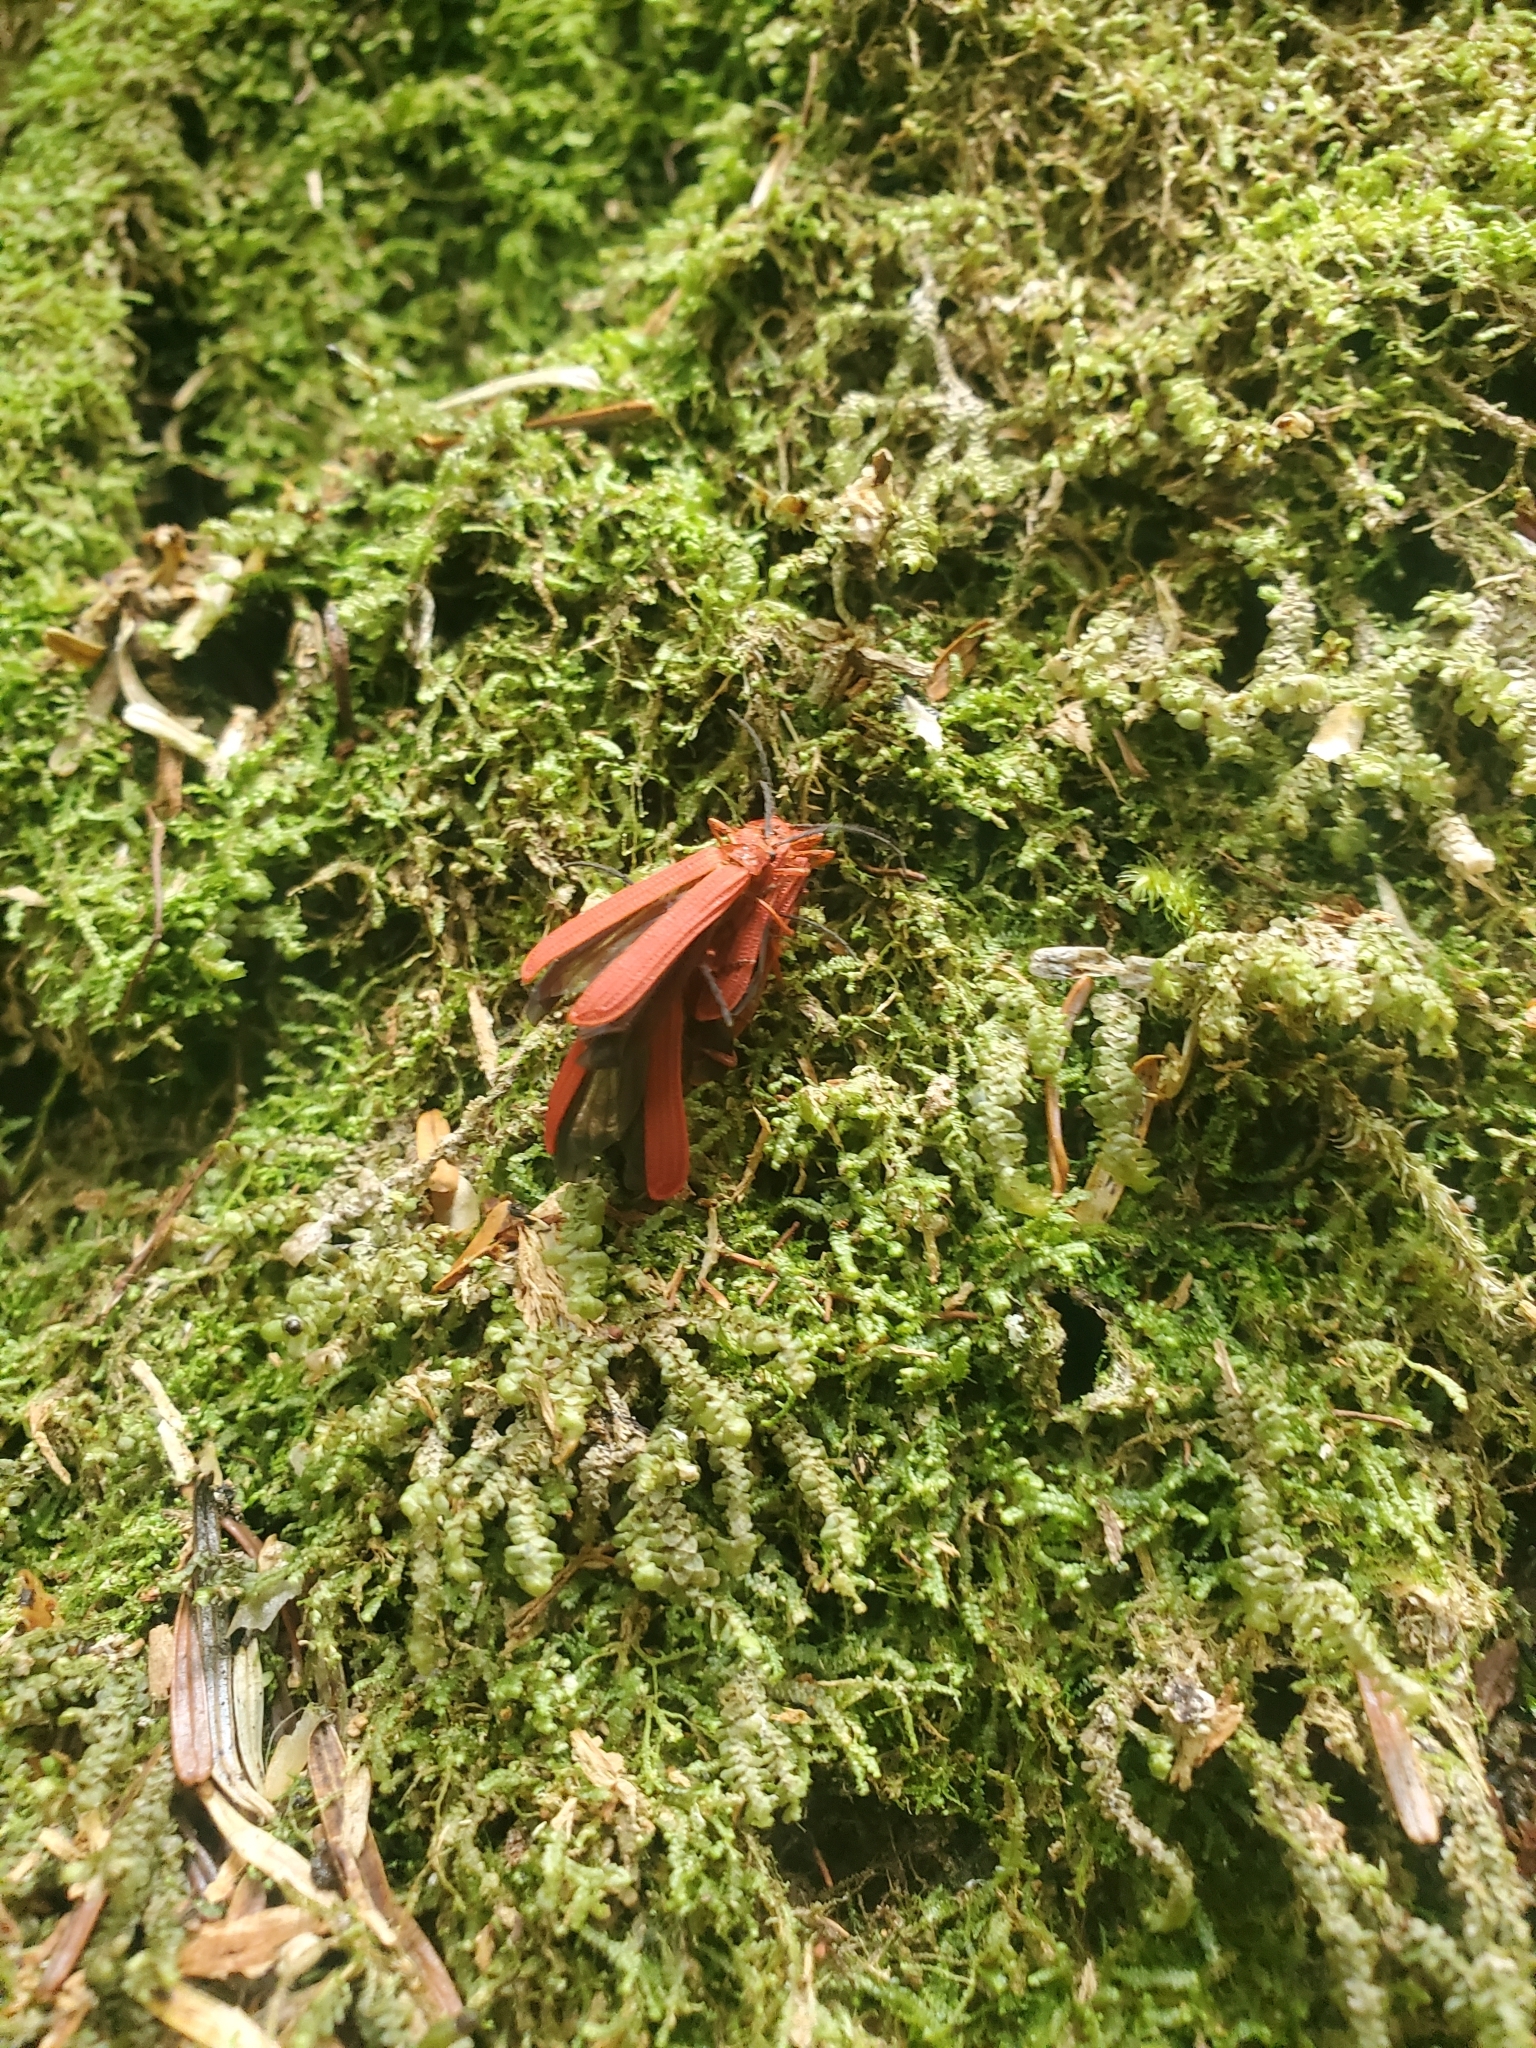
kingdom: Animalia
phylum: Arthropoda
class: Insecta
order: Coleoptera
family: Lycidae
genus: Dictyoptera
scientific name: Dictyoptera simplicipes
